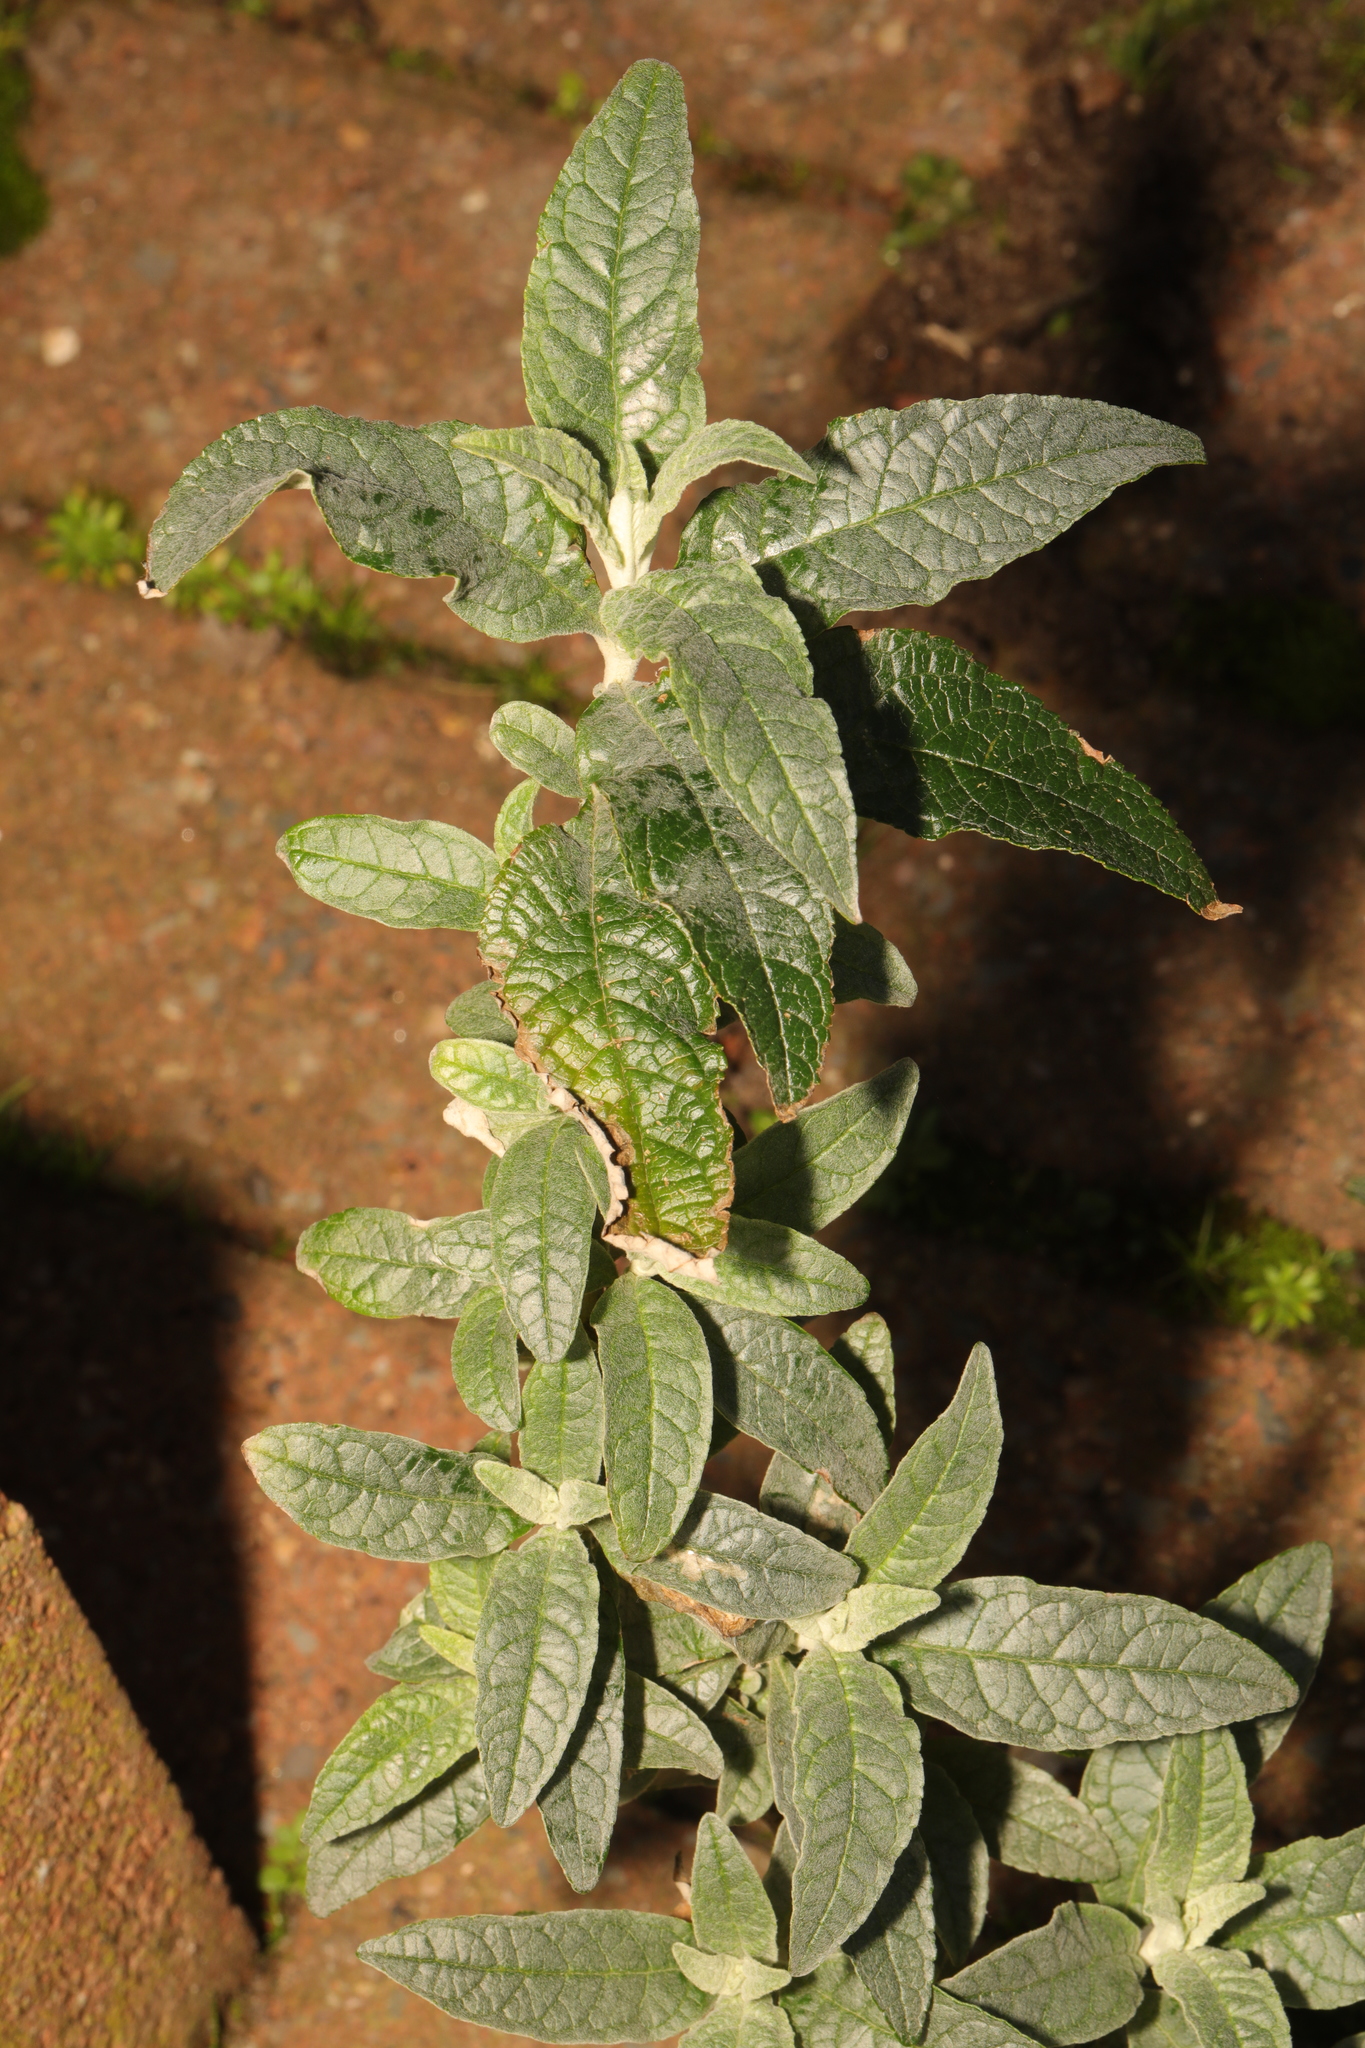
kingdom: Plantae
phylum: Tracheophyta
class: Magnoliopsida
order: Lamiales
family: Scrophulariaceae
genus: Buddleja
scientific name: Buddleja davidii
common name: Butterfly-bush
